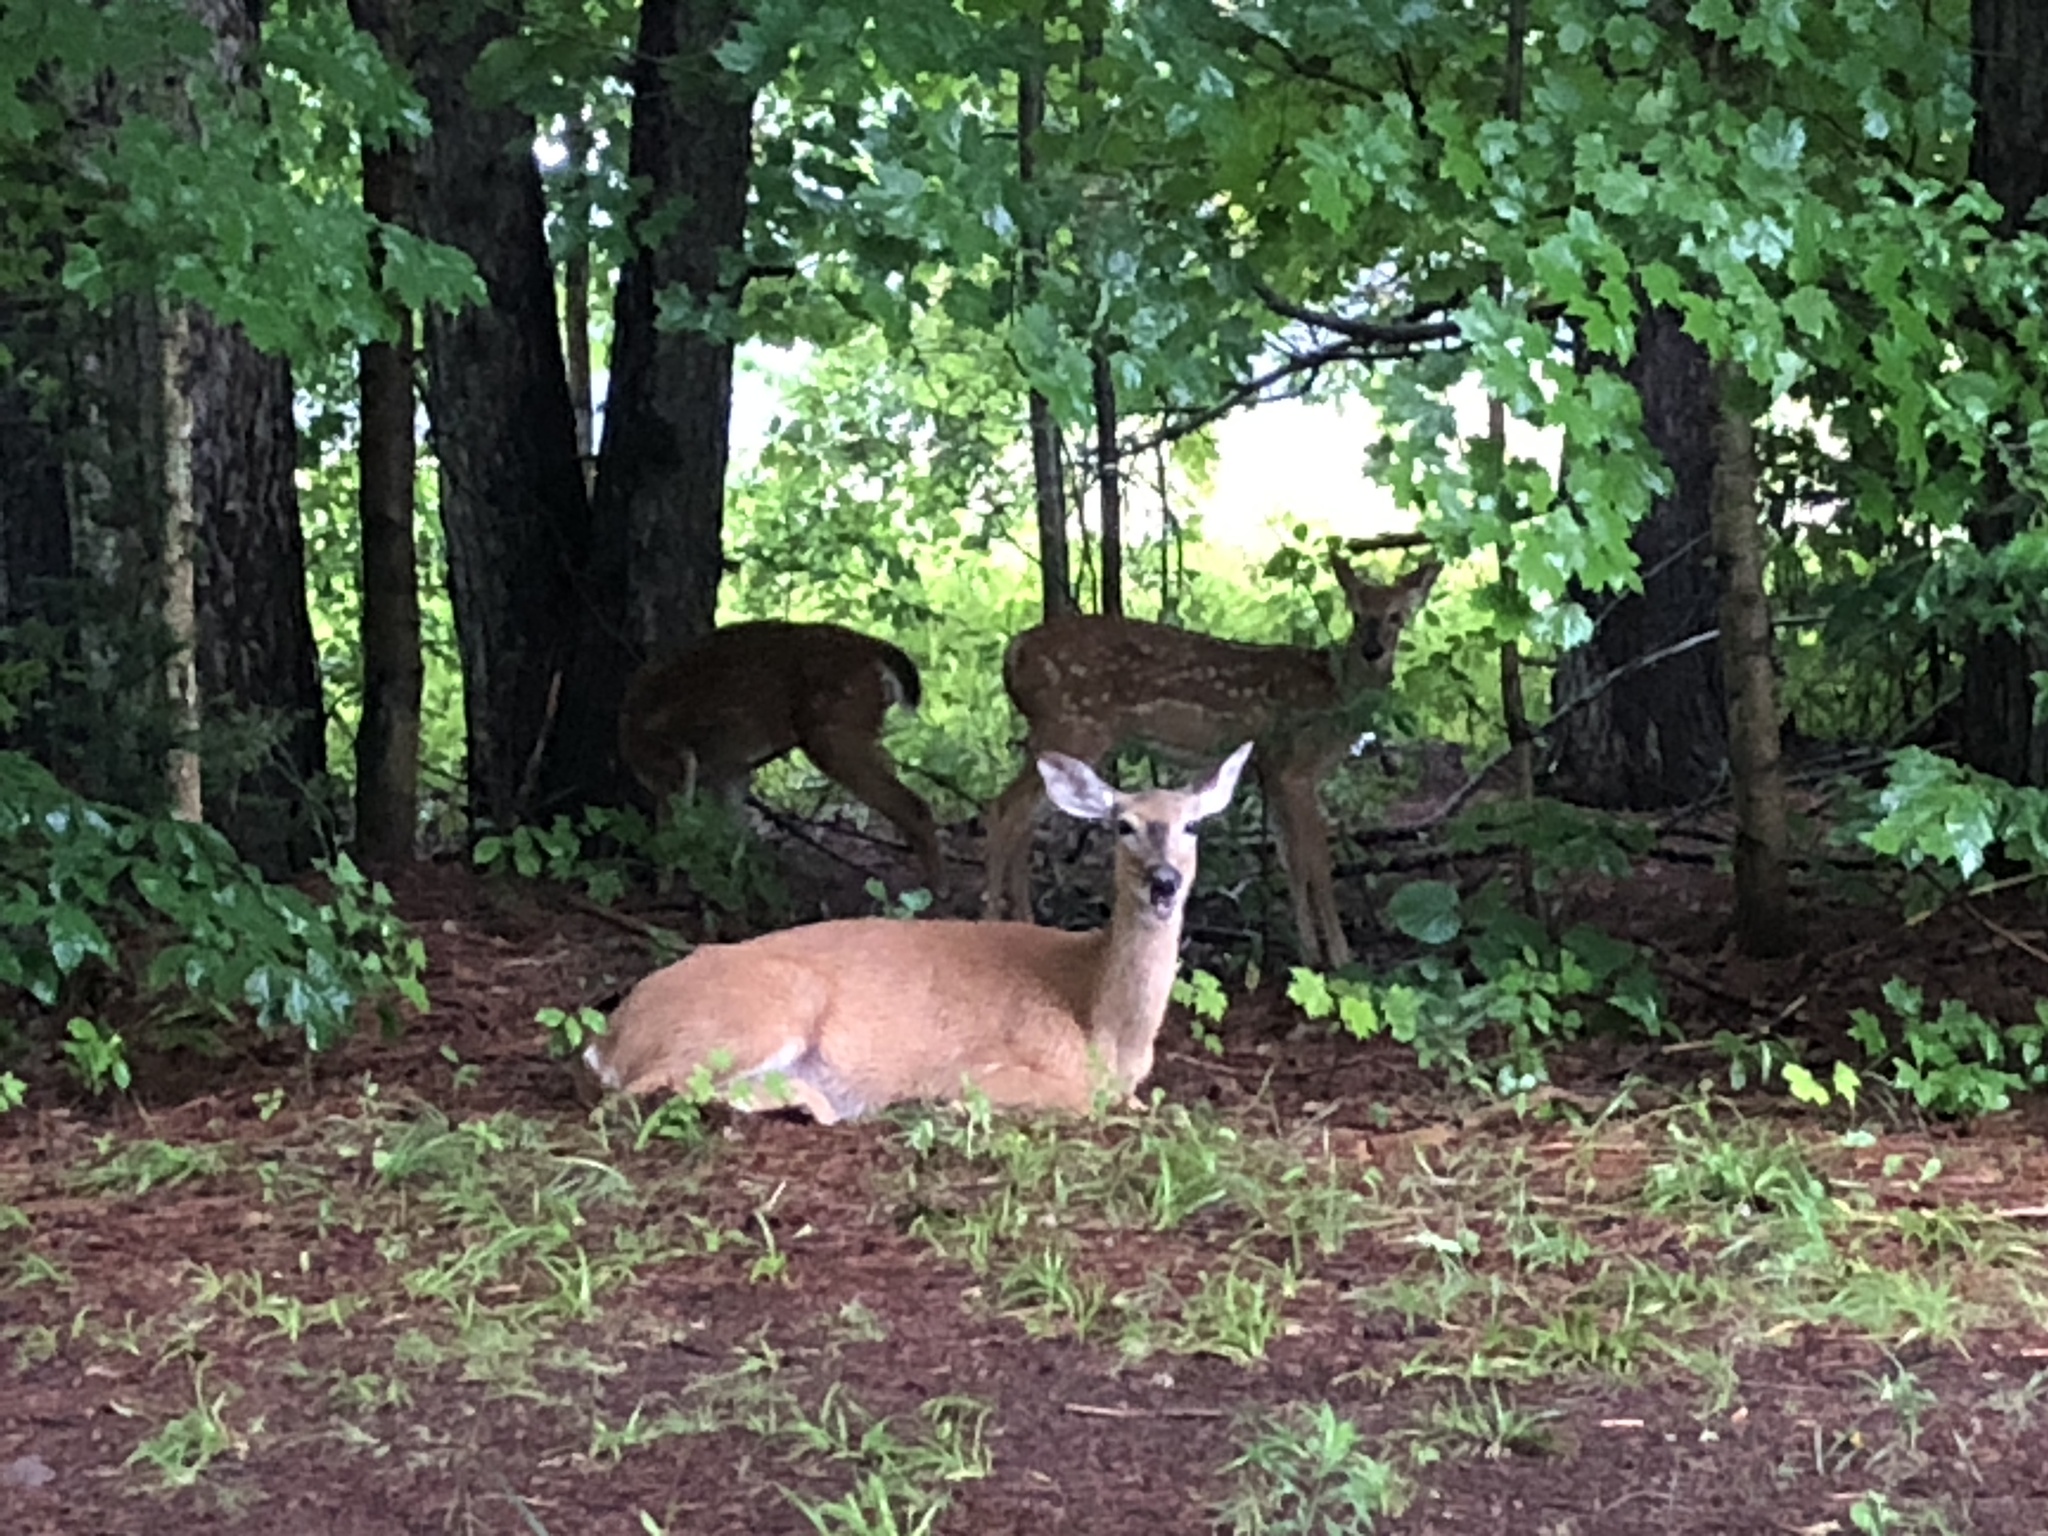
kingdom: Animalia
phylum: Chordata
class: Mammalia
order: Artiodactyla
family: Cervidae
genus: Odocoileus
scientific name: Odocoileus virginianus
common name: White-tailed deer
